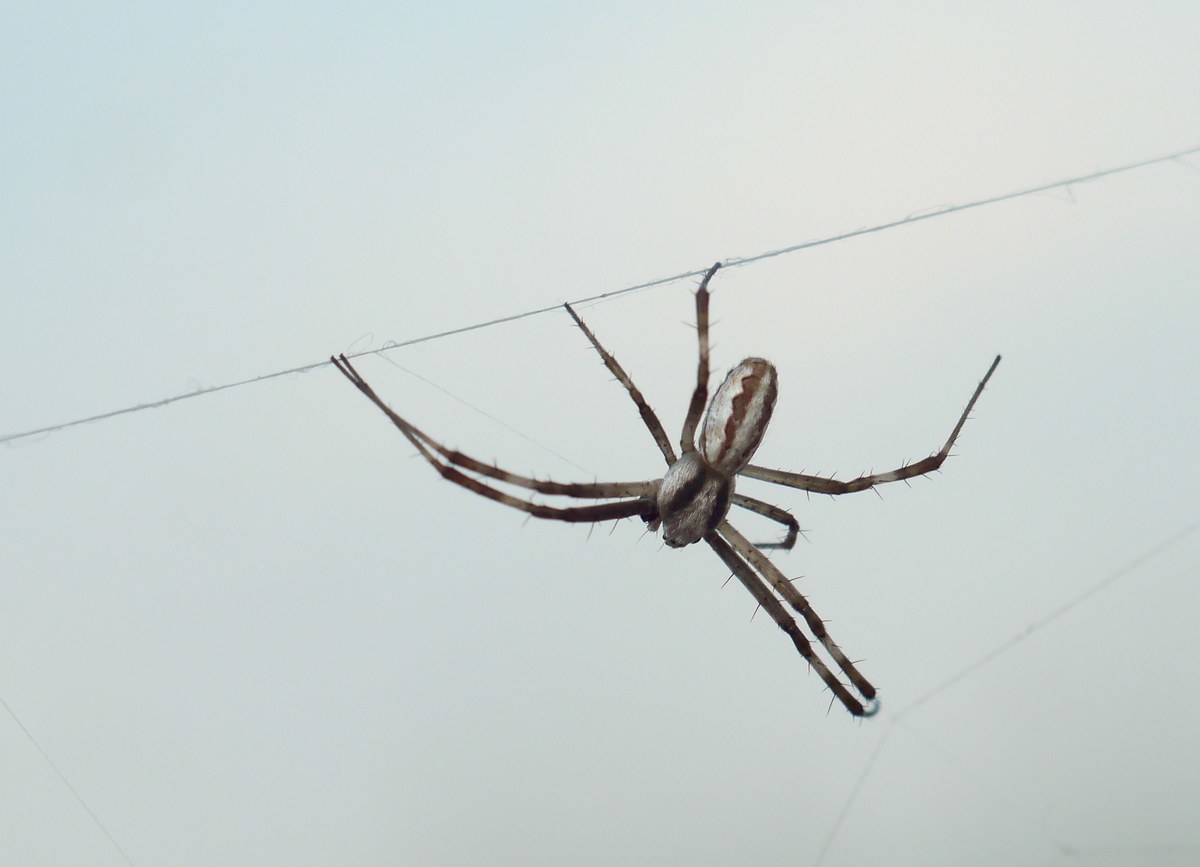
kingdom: Animalia
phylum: Arthropoda
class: Arachnida
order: Araneae
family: Araneidae
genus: Argiope
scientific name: Argiope lobata
